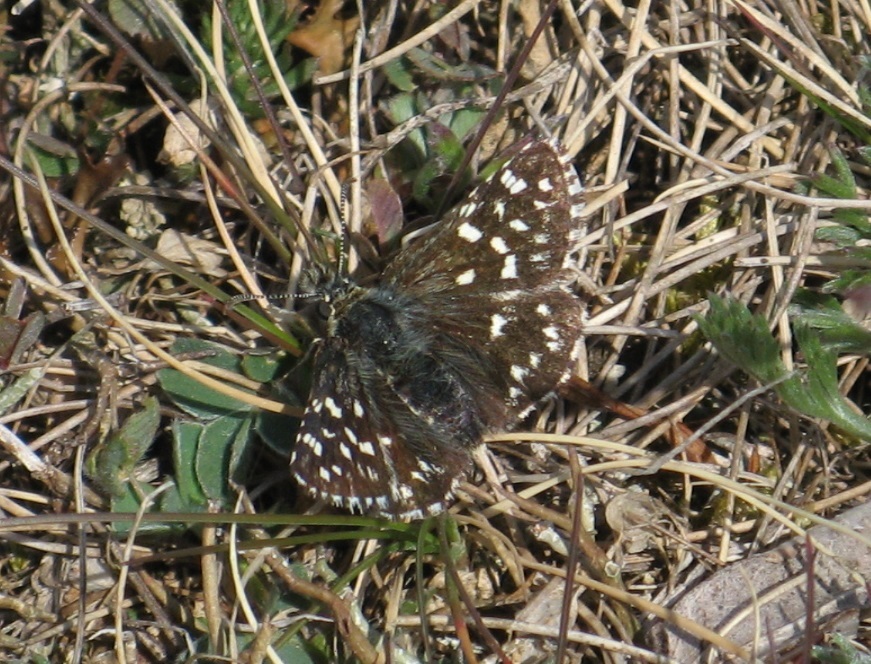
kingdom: Animalia
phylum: Arthropoda
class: Insecta
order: Lepidoptera
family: Hesperiidae
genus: Pyrgus
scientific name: Pyrgus malvae
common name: Grizzled skipper
